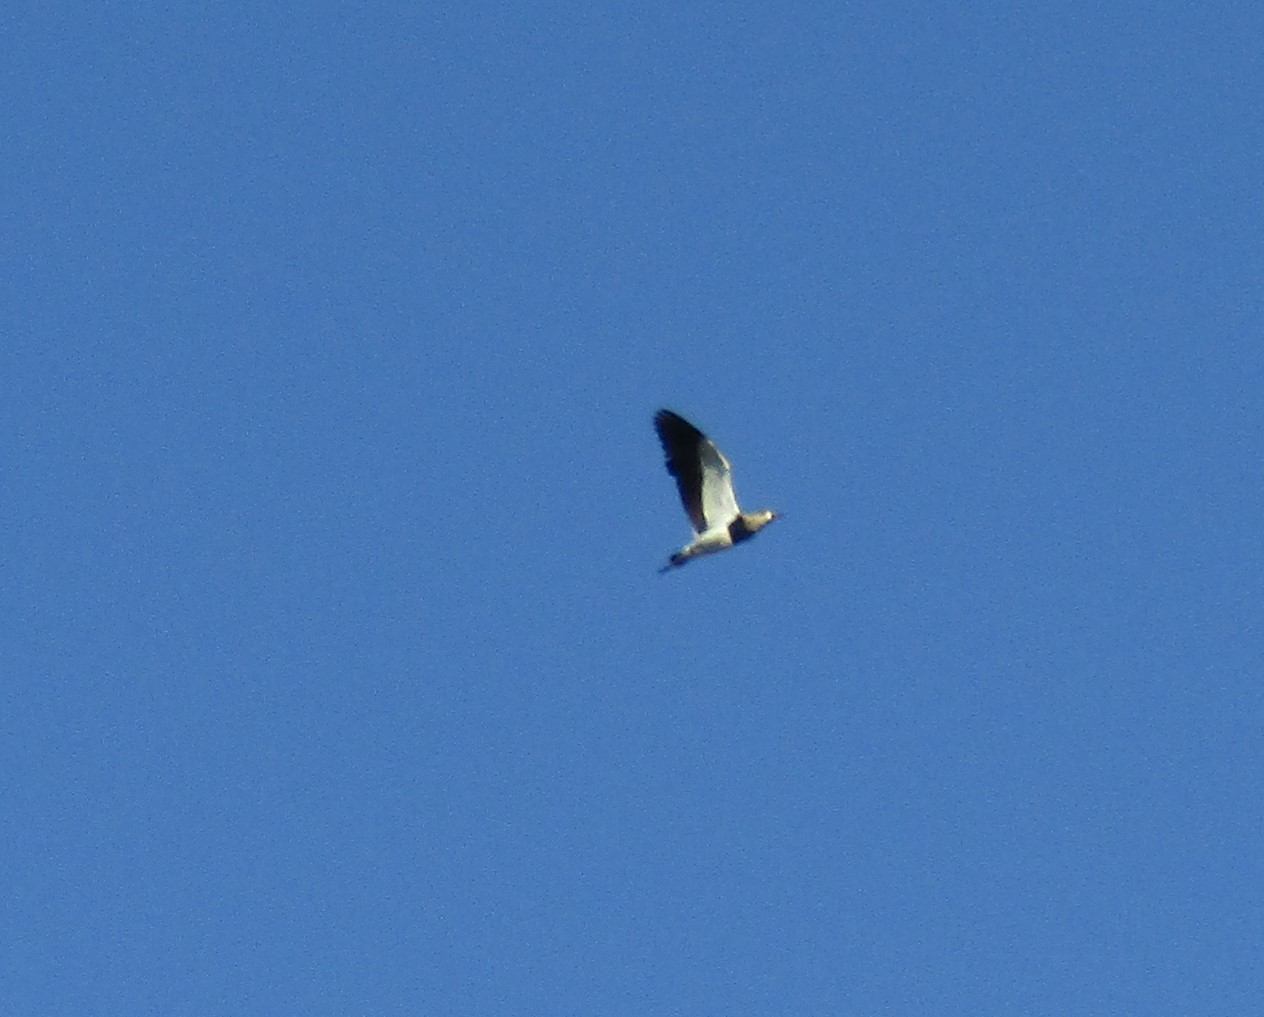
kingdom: Animalia
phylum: Chordata
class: Aves
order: Charadriiformes
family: Charadriidae
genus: Vanellus
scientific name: Vanellus chilensis
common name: Southern lapwing
